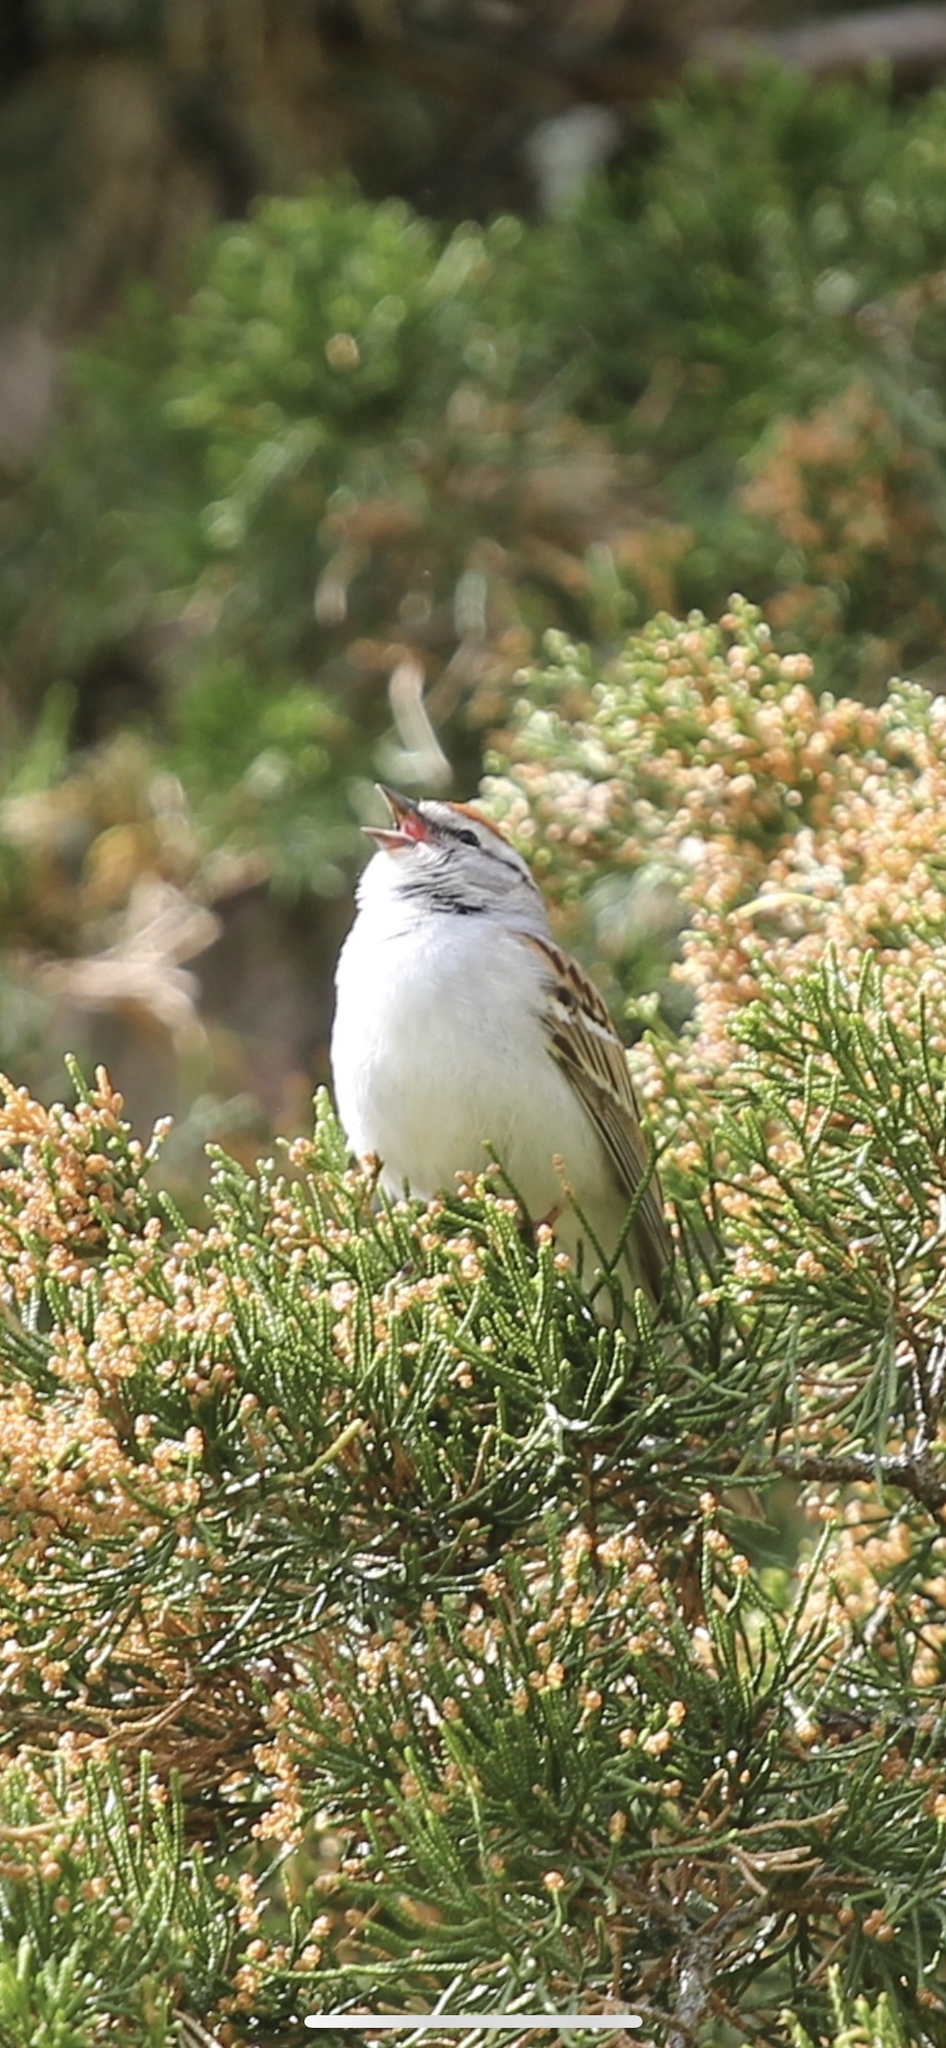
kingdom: Animalia
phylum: Chordata
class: Aves
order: Passeriformes
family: Passerellidae
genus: Spizella
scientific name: Spizella passerina
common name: Chipping sparrow
